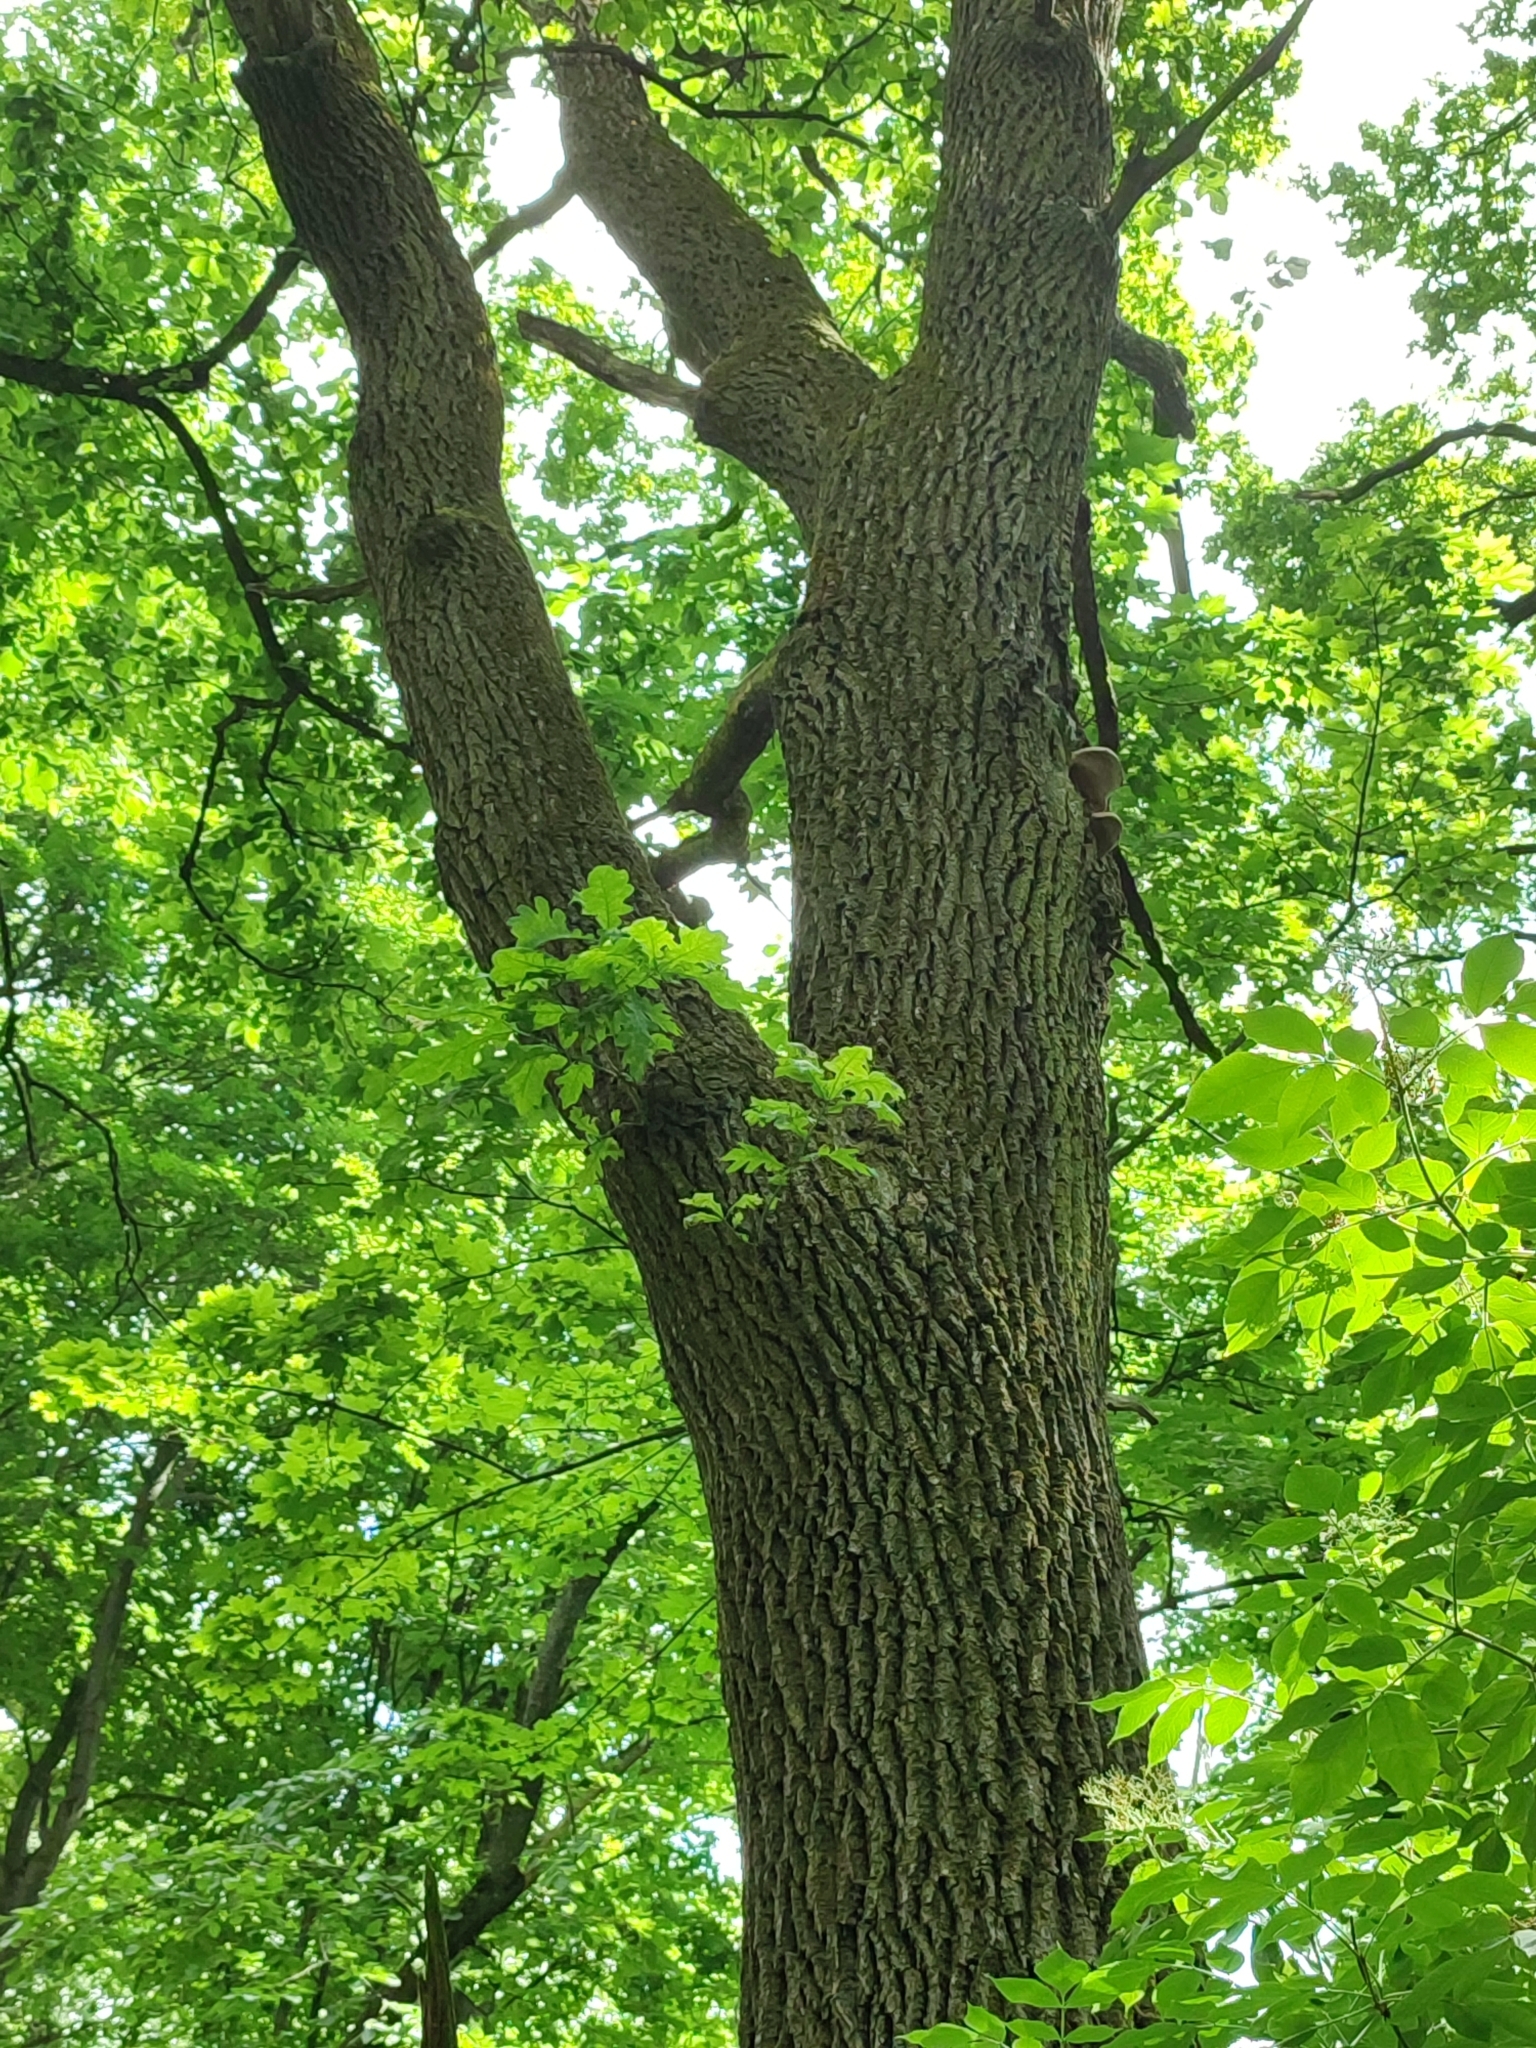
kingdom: Plantae
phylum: Tracheophyta
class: Magnoliopsida
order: Fagales
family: Fagaceae
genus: Quercus
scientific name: Quercus robur
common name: Pedunculate oak
